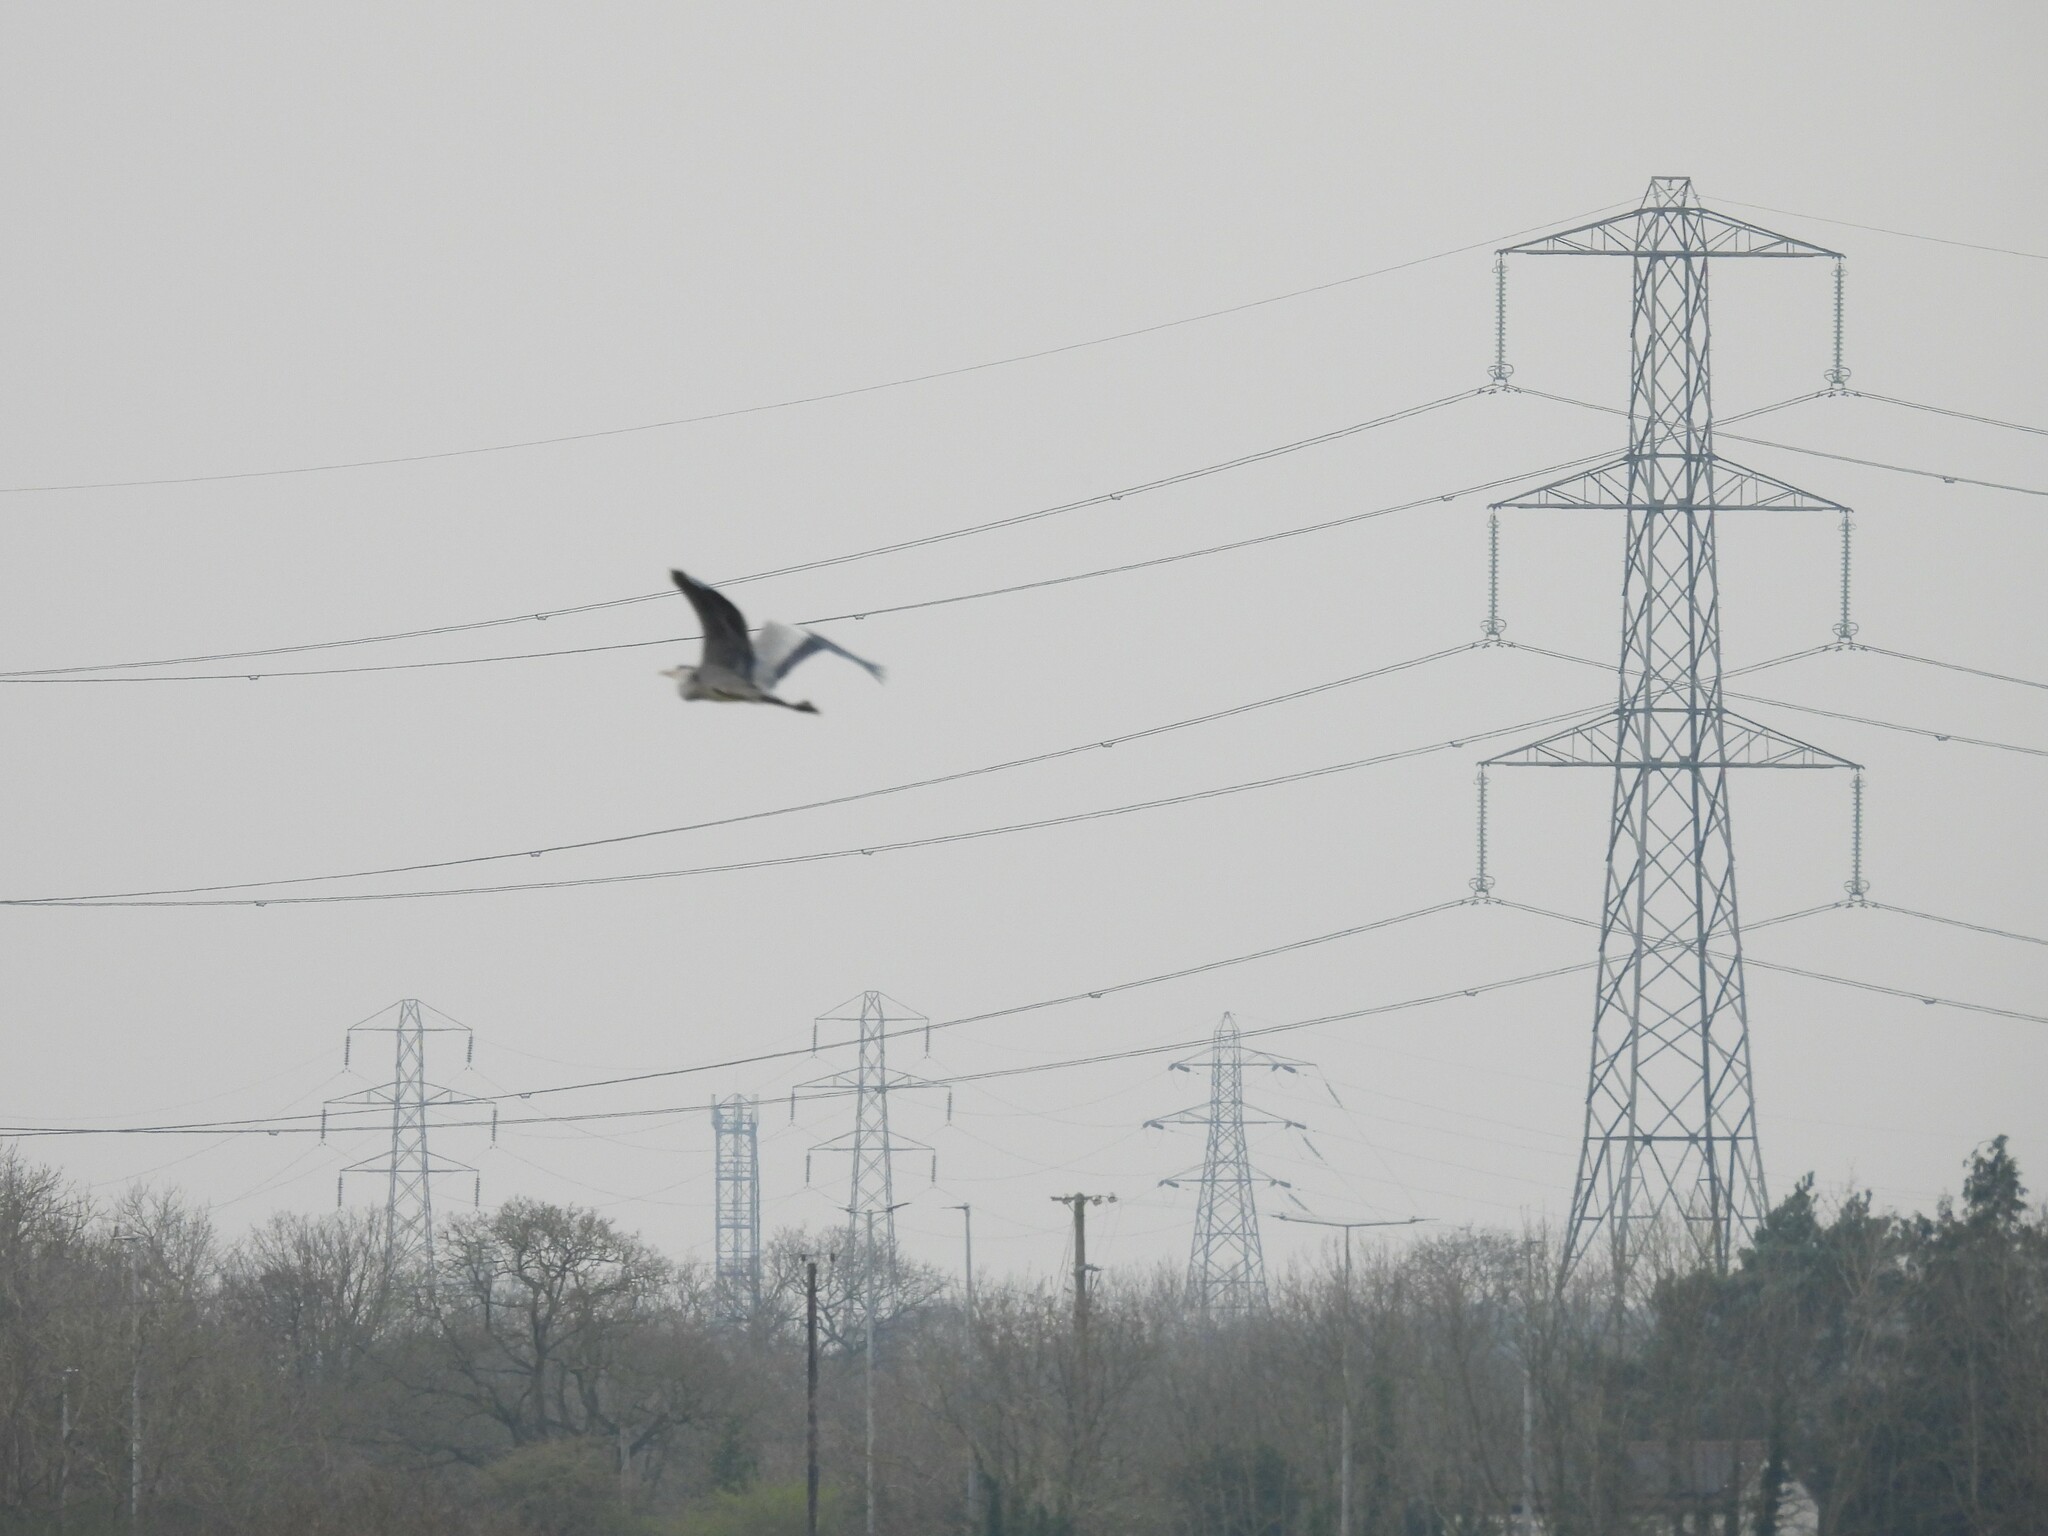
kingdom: Animalia
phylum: Chordata
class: Aves
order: Pelecaniformes
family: Ardeidae
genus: Ardea
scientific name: Ardea cinerea
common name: Grey heron
